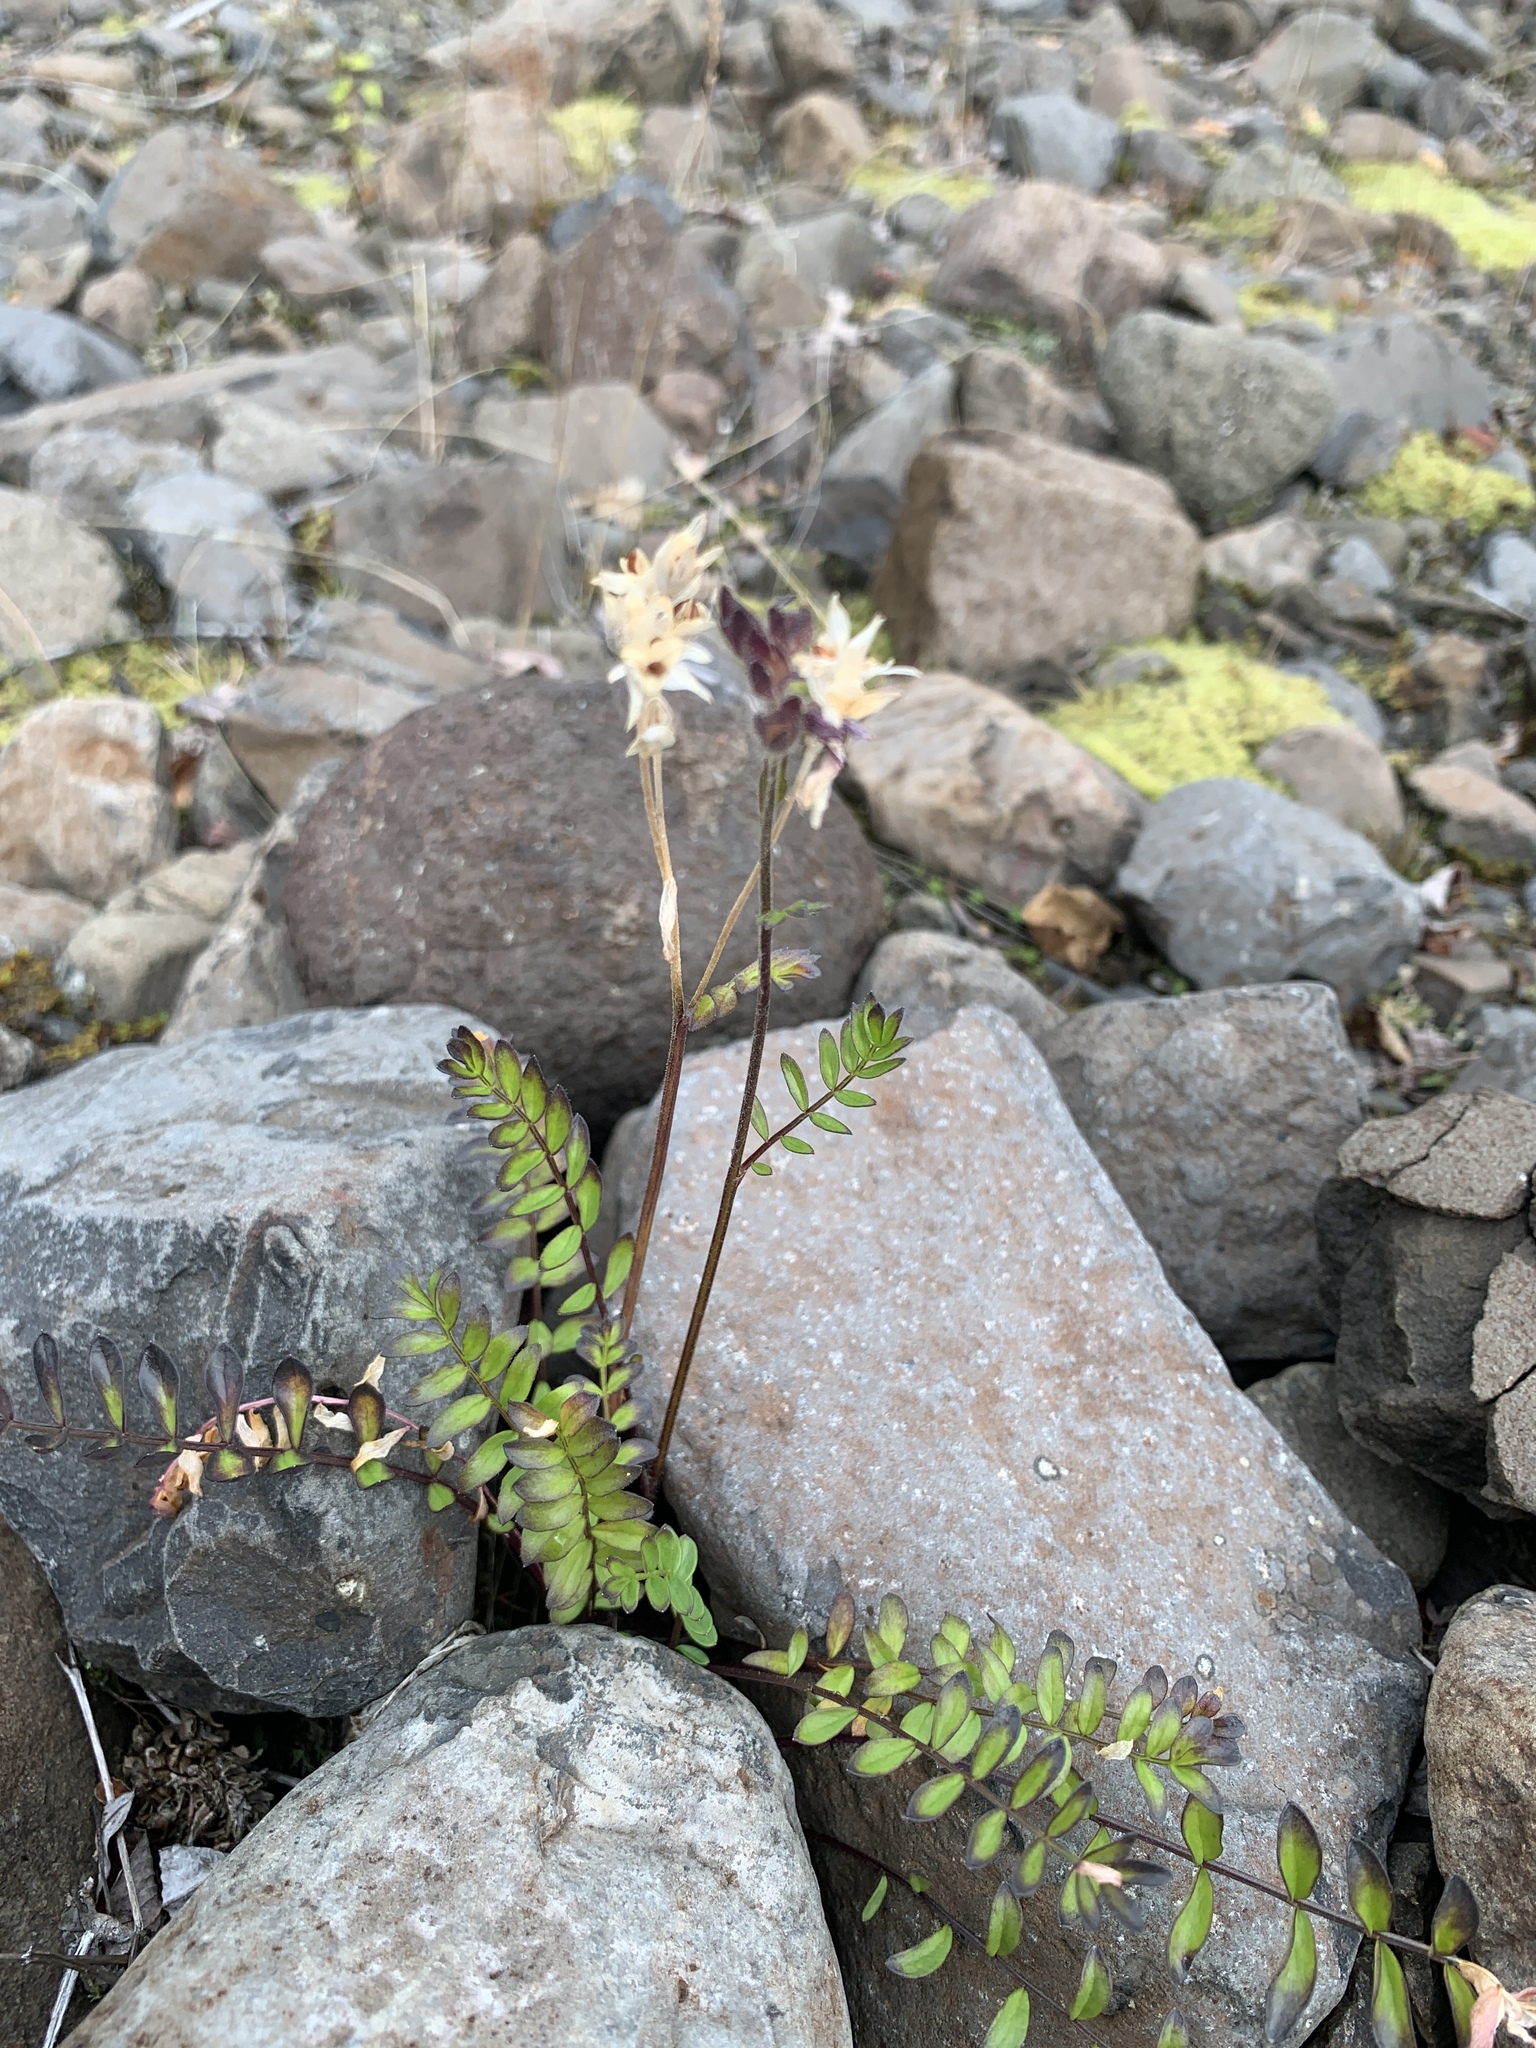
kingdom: Plantae
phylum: Tracheophyta
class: Magnoliopsida
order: Ericales
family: Polemoniaceae
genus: Polemonium
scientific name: Polemonium boreale
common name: Boreal jacob's-ladder
